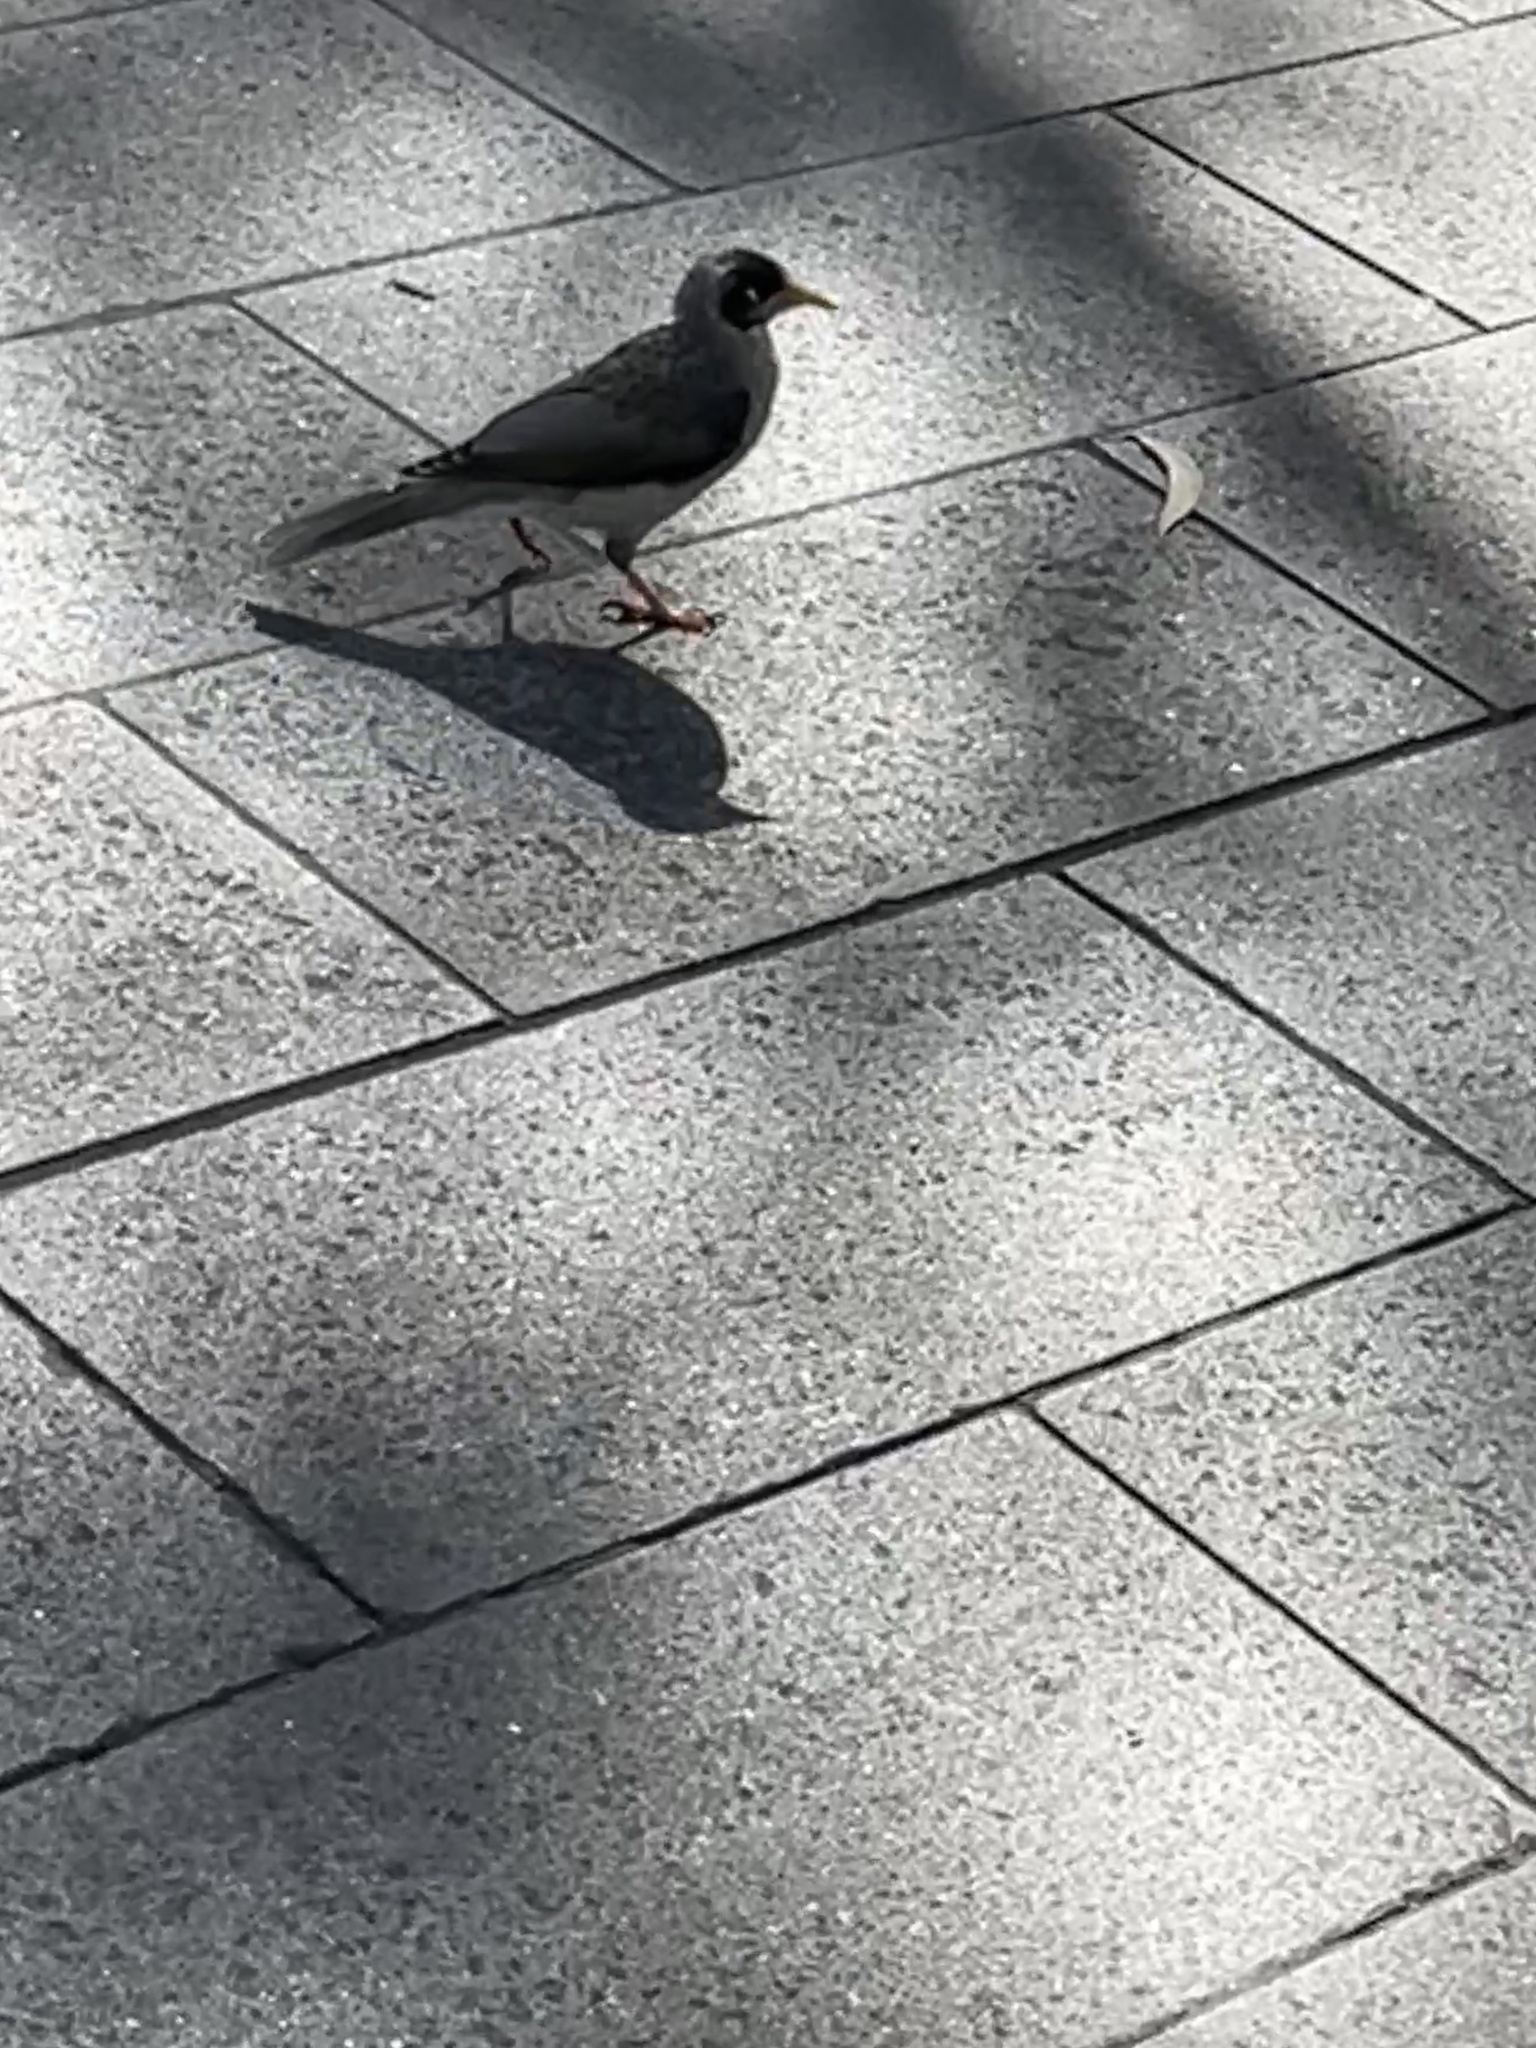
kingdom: Animalia
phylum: Chordata
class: Aves
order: Passeriformes
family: Meliphagidae
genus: Manorina
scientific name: Manorina melanocephala
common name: Noisy miner
